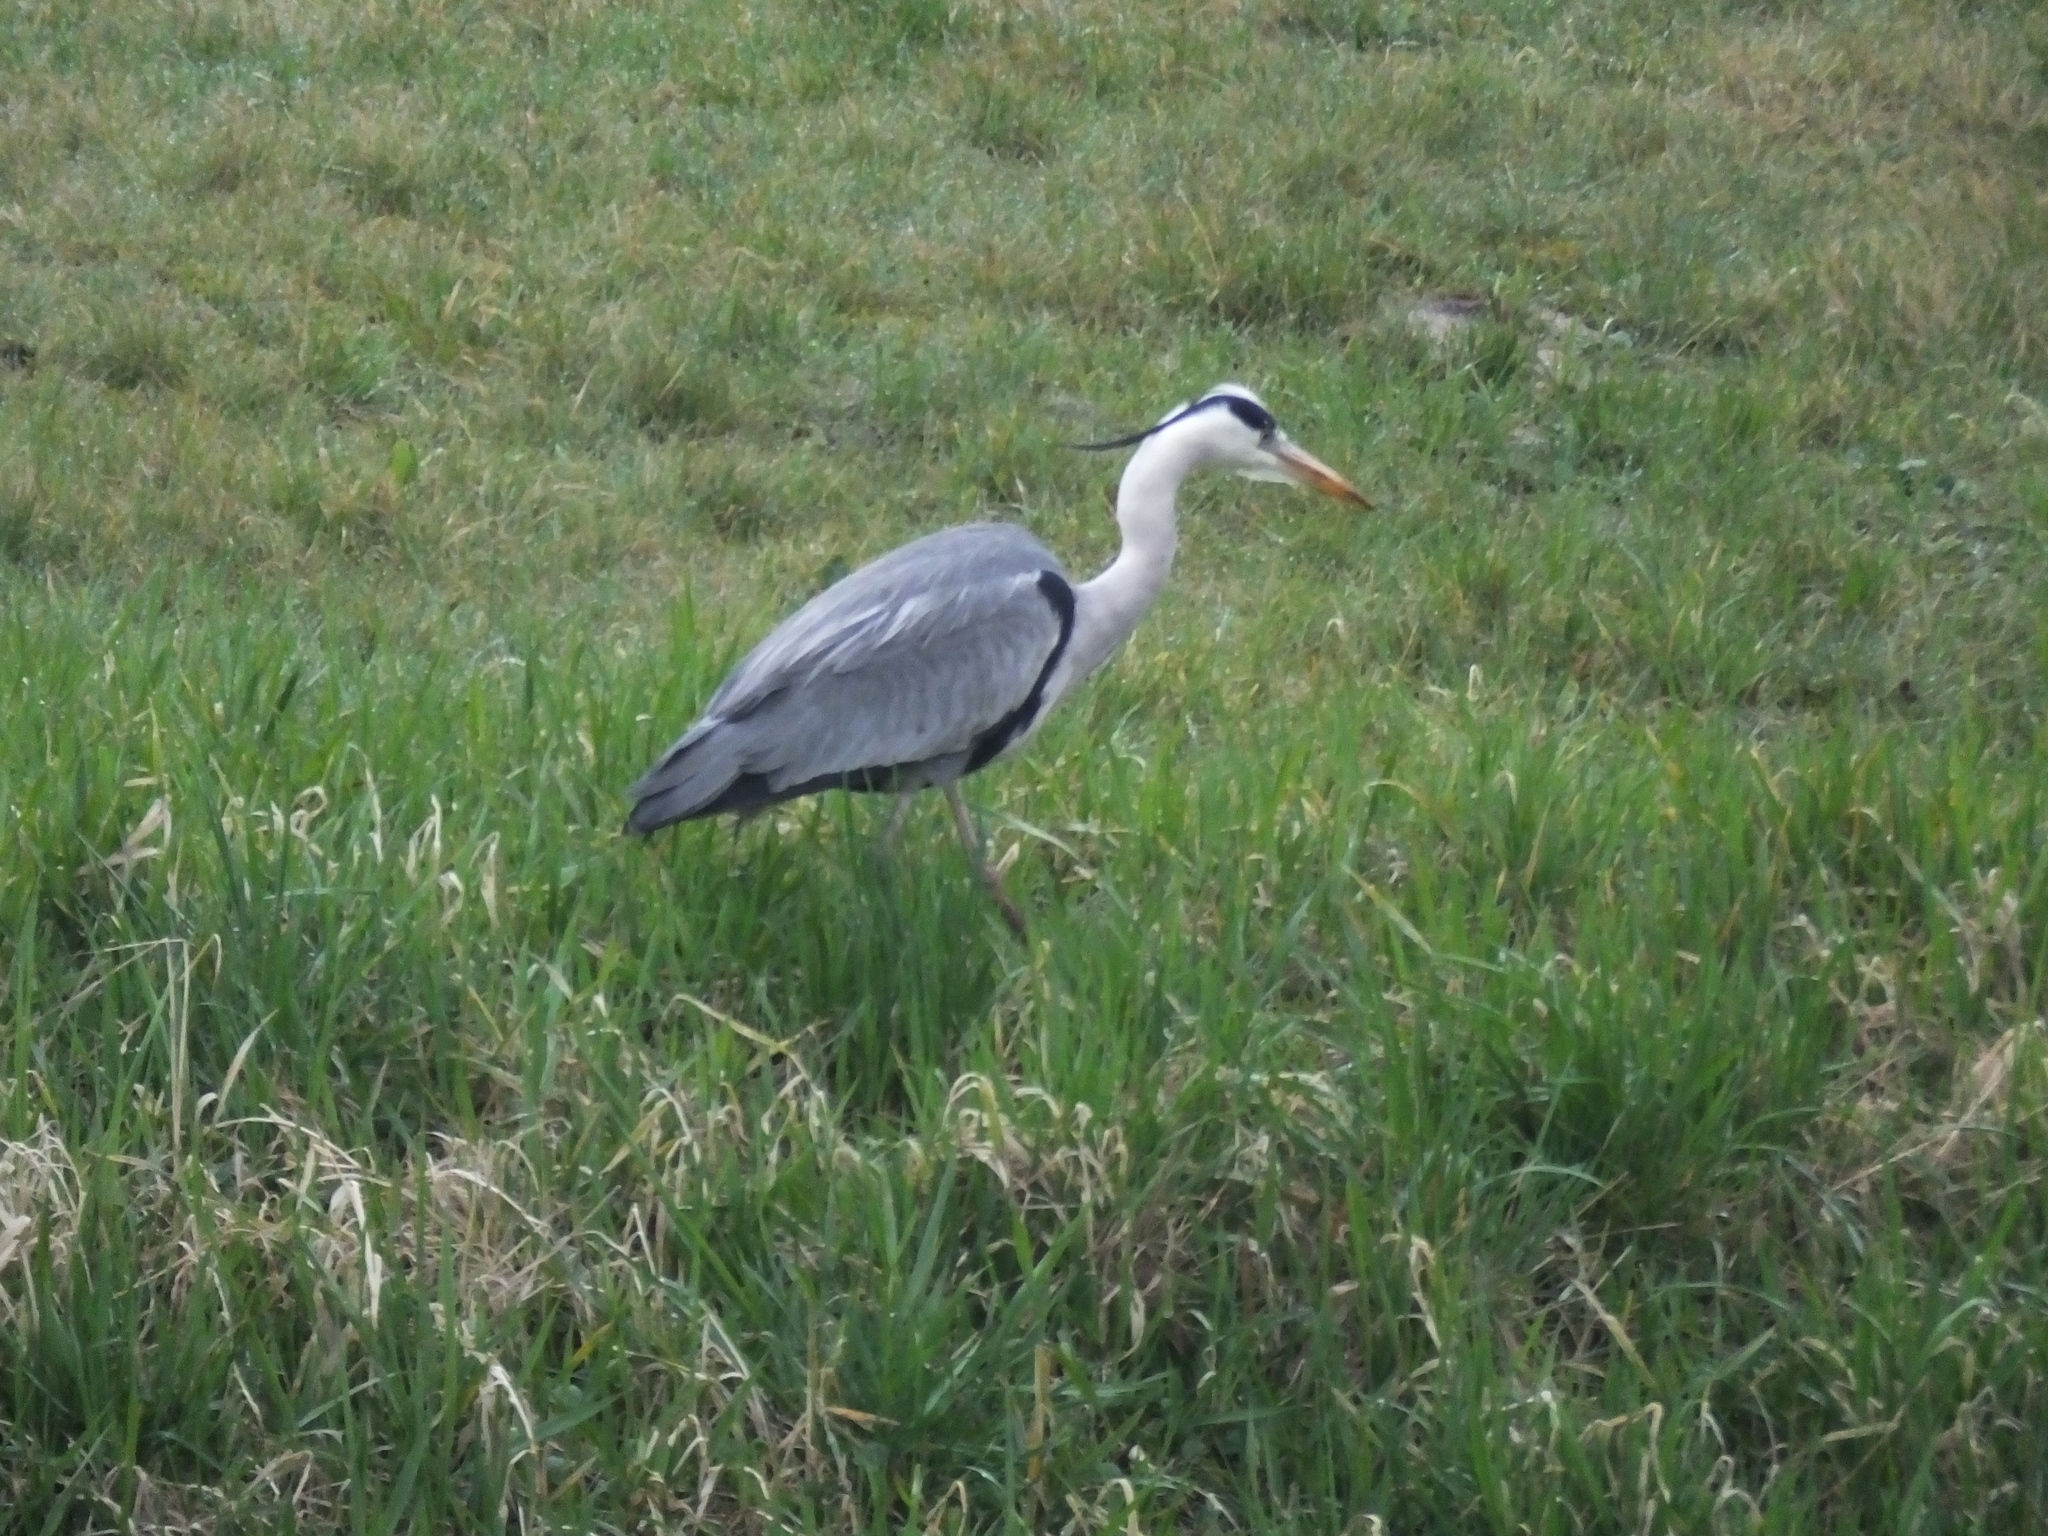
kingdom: Animalia
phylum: Chordata
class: Aves
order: Pelecaniformes
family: Ardeidae
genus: Ardea
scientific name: Ardea cinerea
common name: Grey heron
